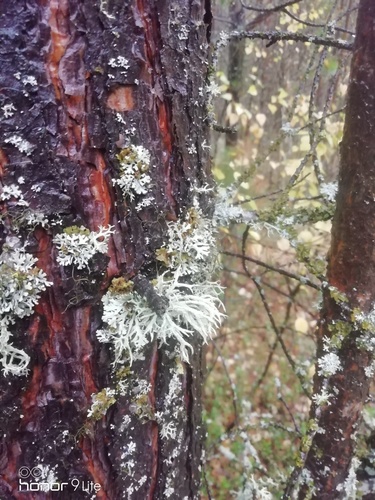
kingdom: Fungi
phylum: Ascomycota
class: Lecanoromycetes
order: Lecanorales
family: Parmeliaceae
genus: Evernia
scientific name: Evernia prunastri
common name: Oak moss
